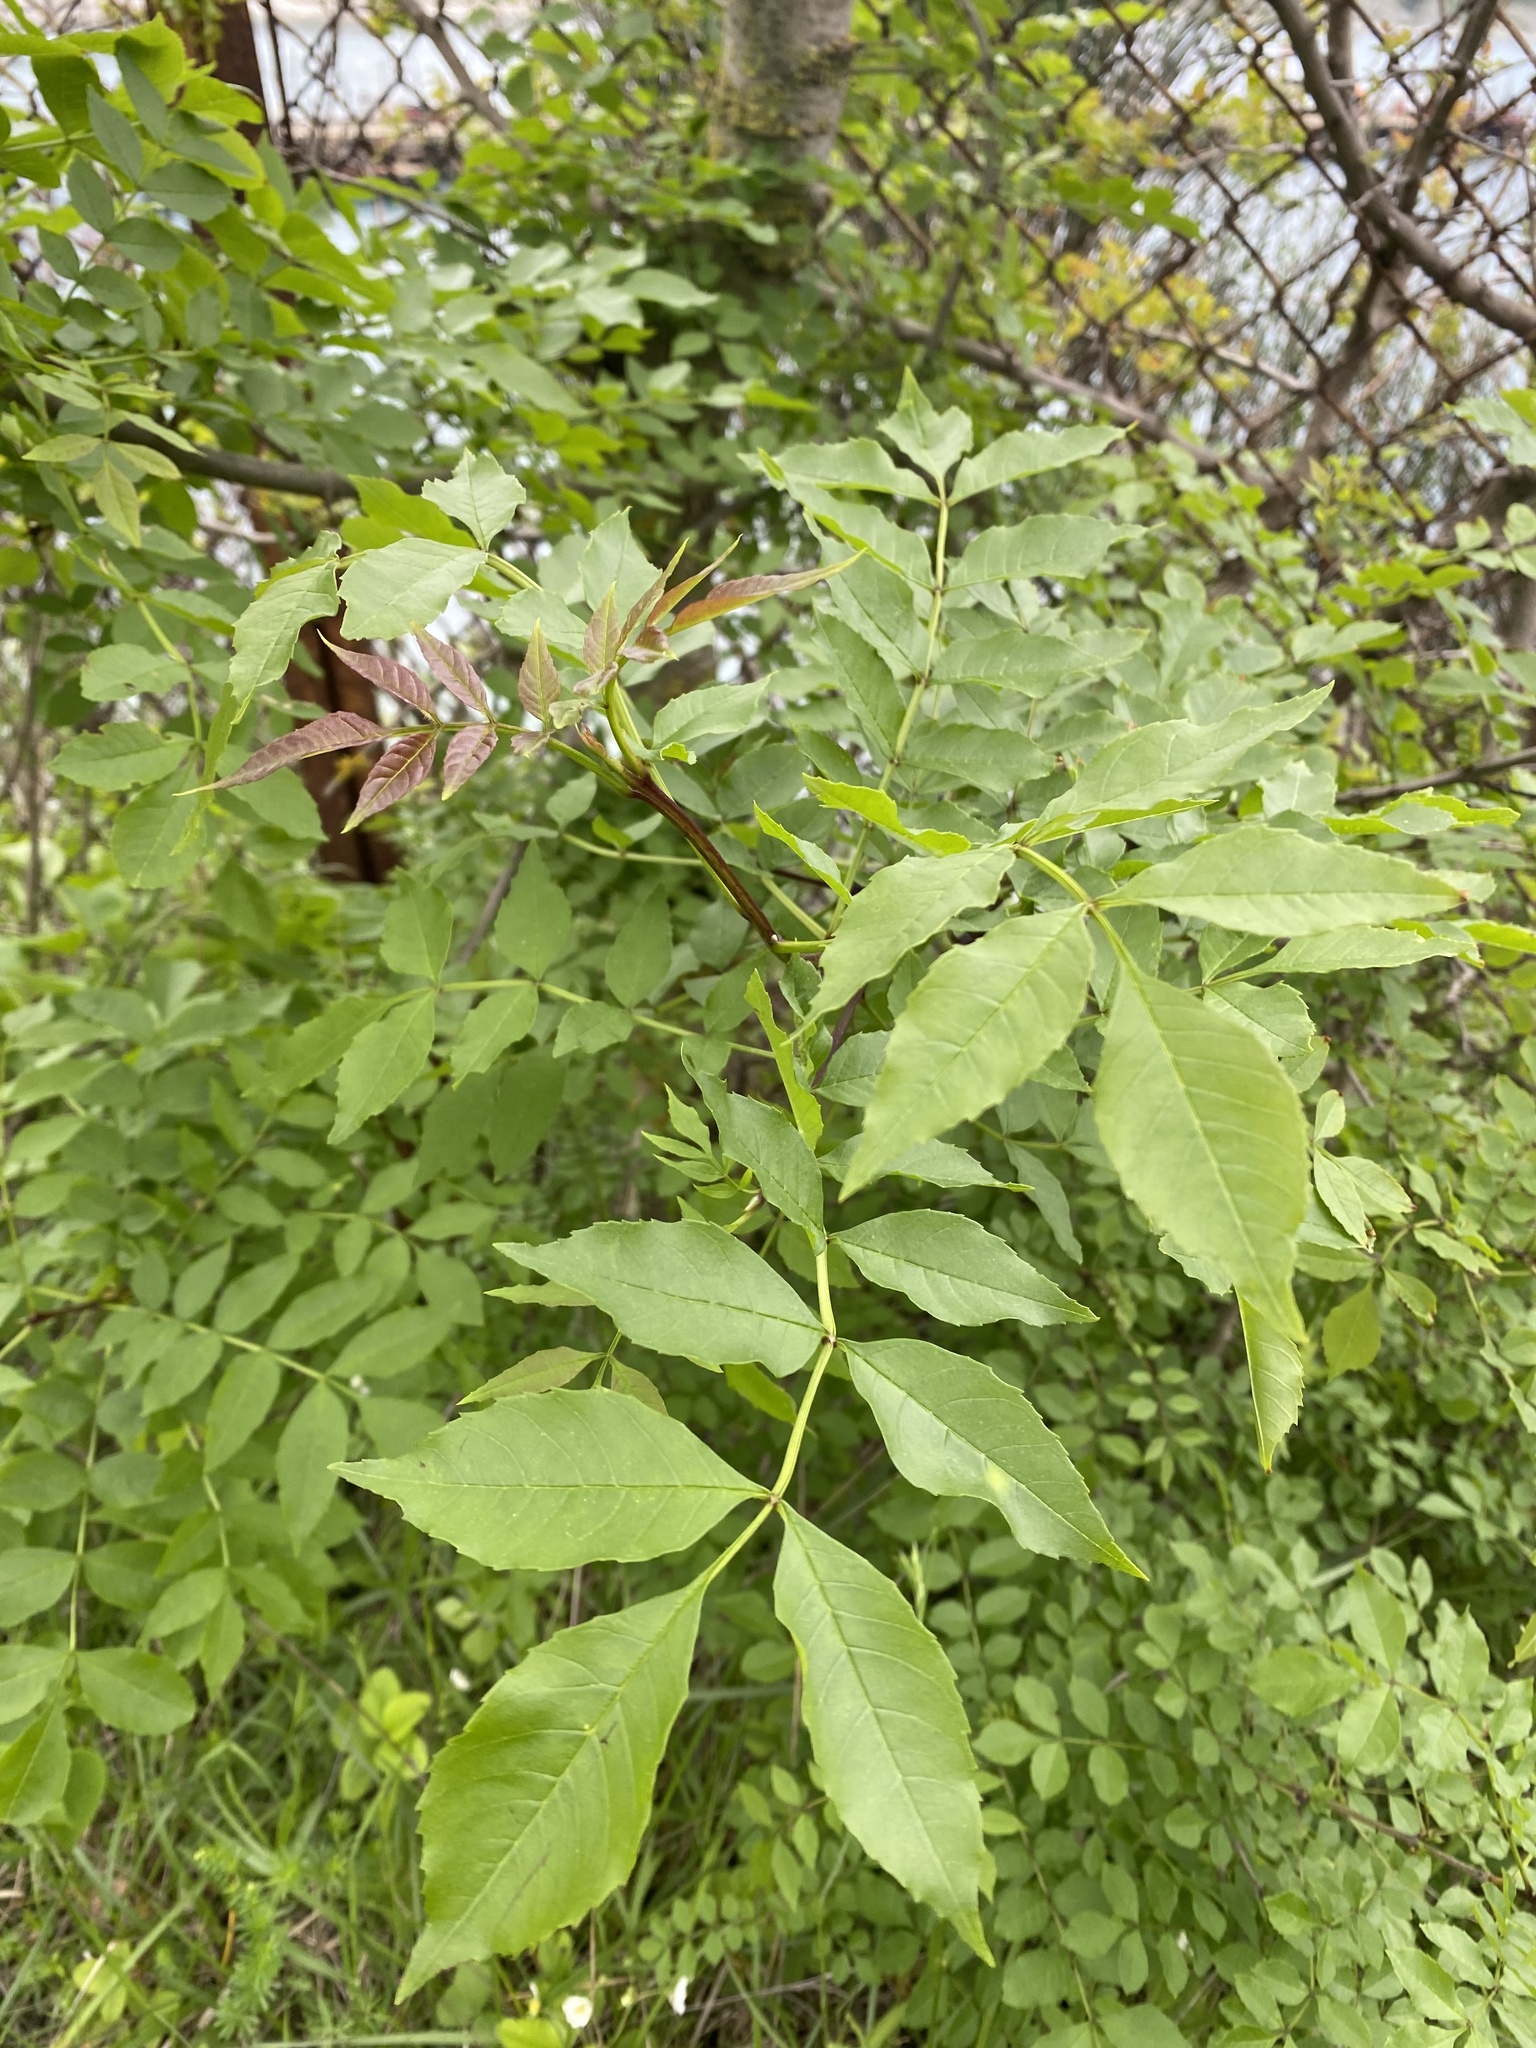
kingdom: Plantae
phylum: Tracheophyta
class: Magnoliopsida
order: Lamiales
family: Oleaceae
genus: Fraxinus
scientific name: Fraxinus angustifolia
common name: Narrow-leafed ash
